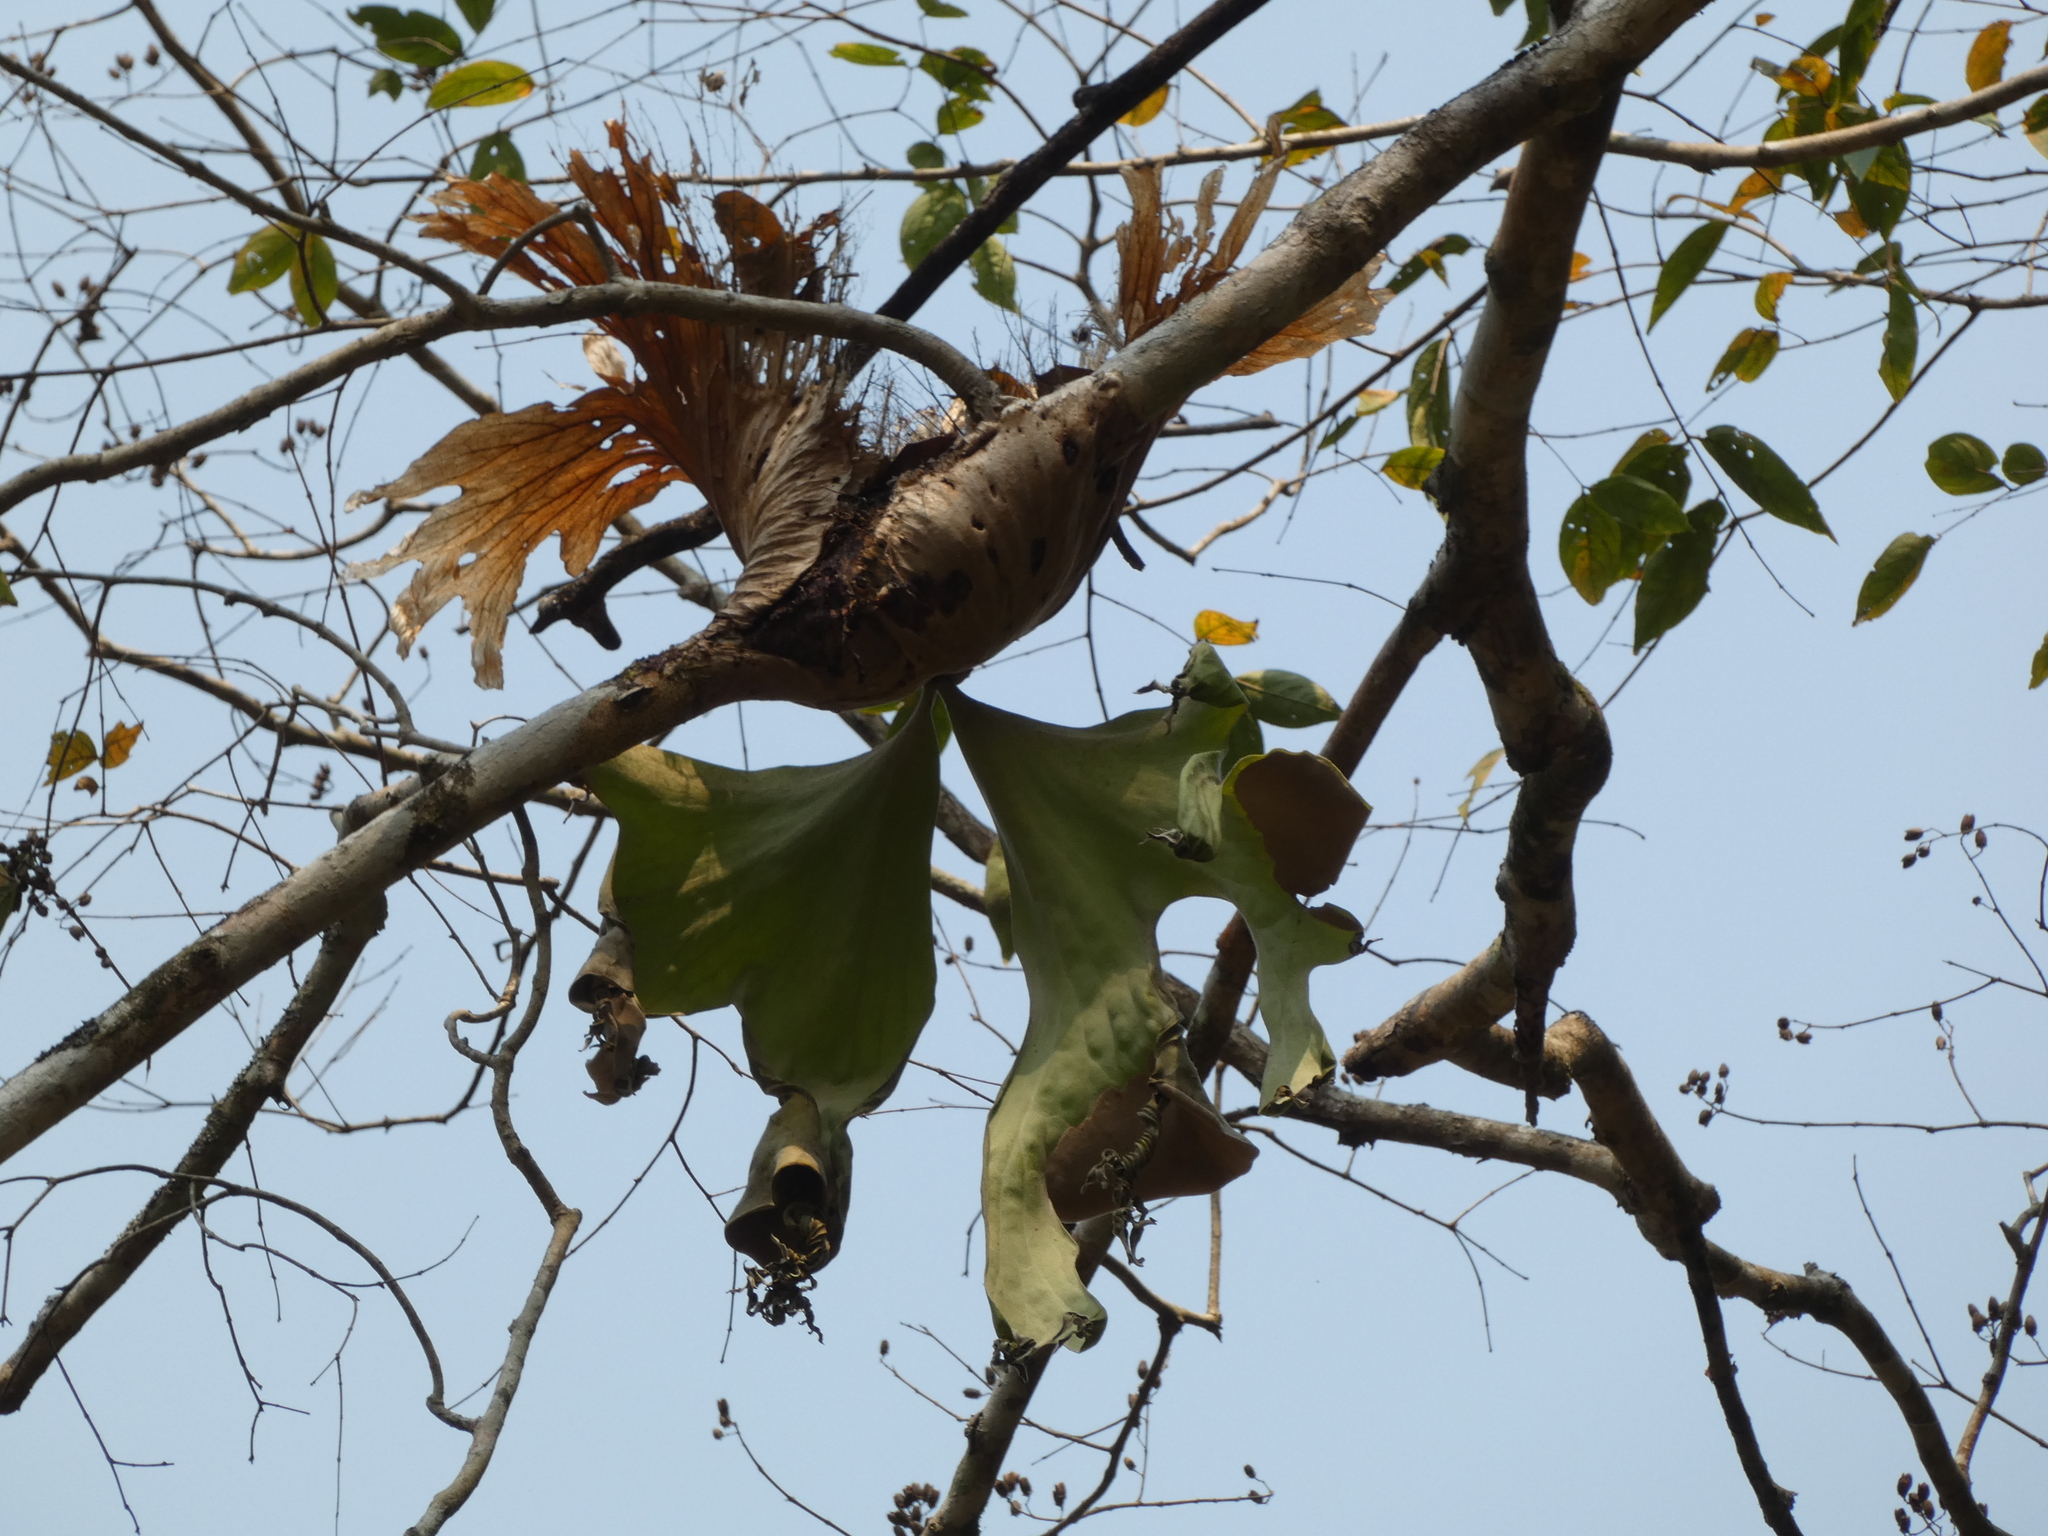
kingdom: Plantae
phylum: Tracheophyta
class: Polypodiopsida
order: Polypodiales
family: Polypodiaceae
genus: Platycerium
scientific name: Platycerium wallichii
